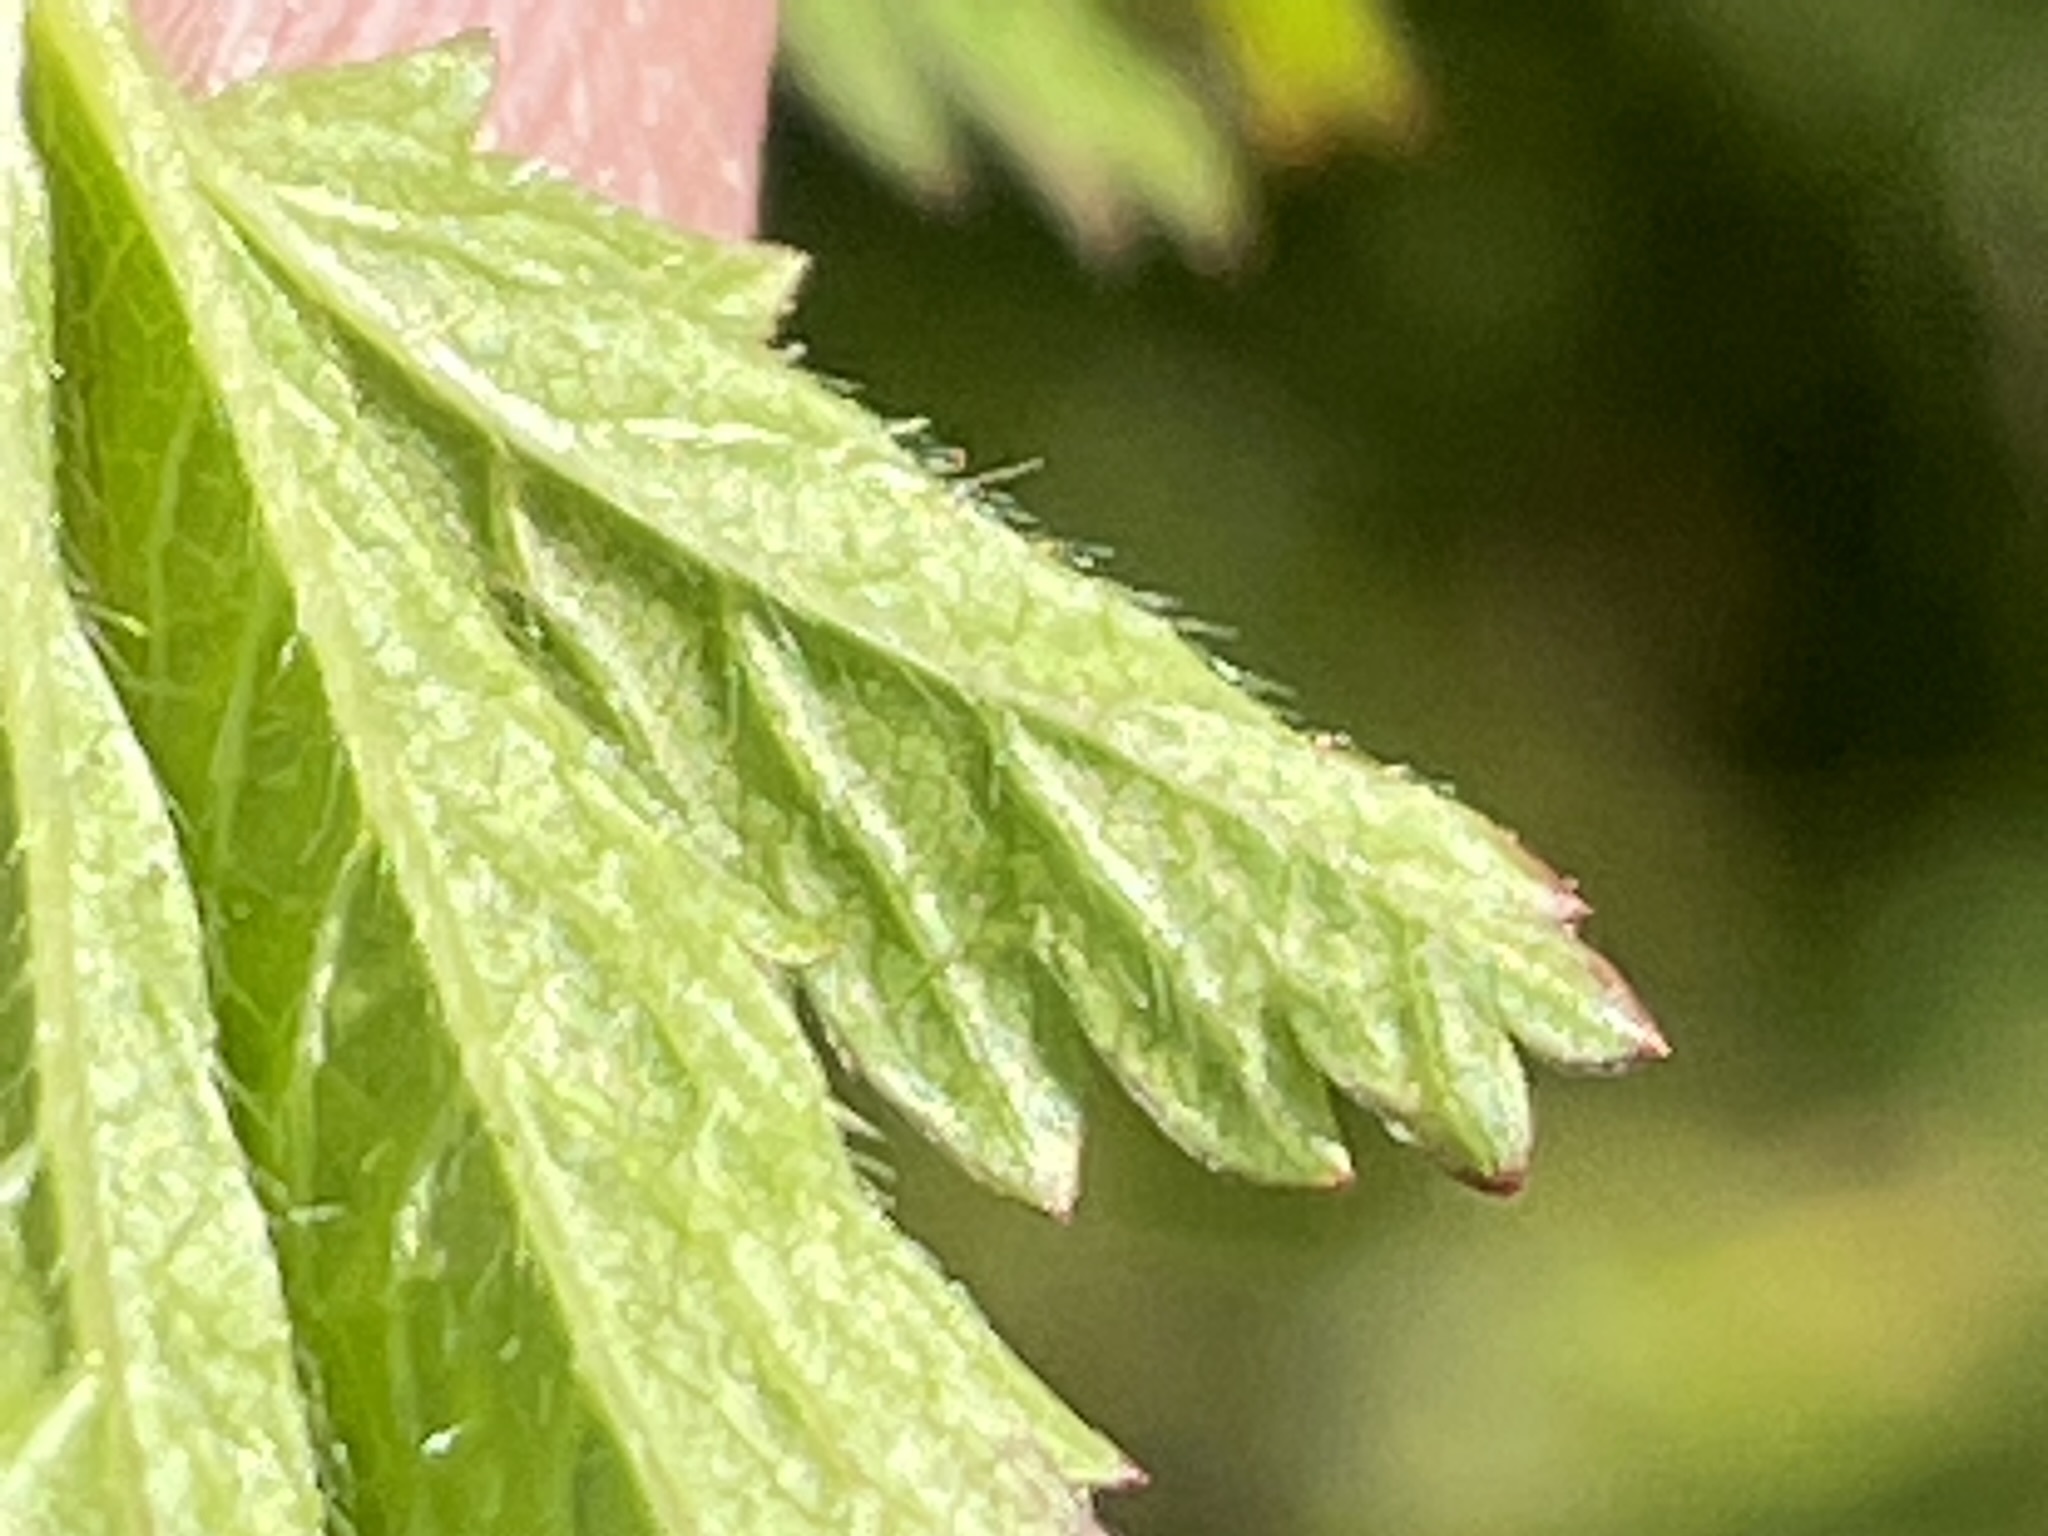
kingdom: Plantae
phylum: Tracheophyta
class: Magnoliopsida
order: Rosales
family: Rosaceae
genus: Potentilla
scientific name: Potentilla reptans
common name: Creeping cinquefoil
